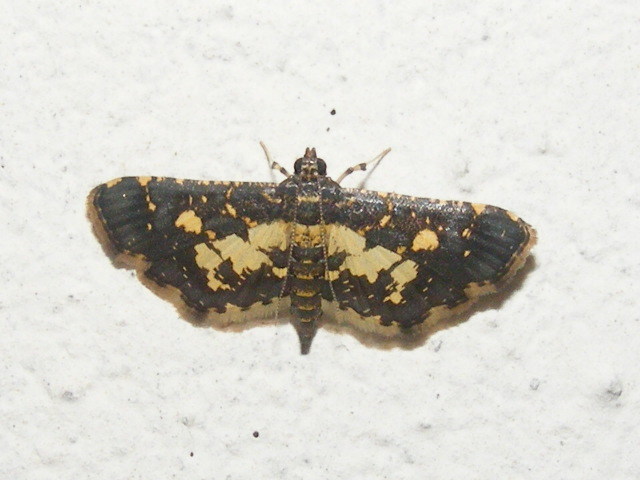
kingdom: Animalia
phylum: Arthropoda
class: Insecta
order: Lepidoptera
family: Crambidae
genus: Eurrhyparodes
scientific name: Eurrhyparodes bracteolalis
